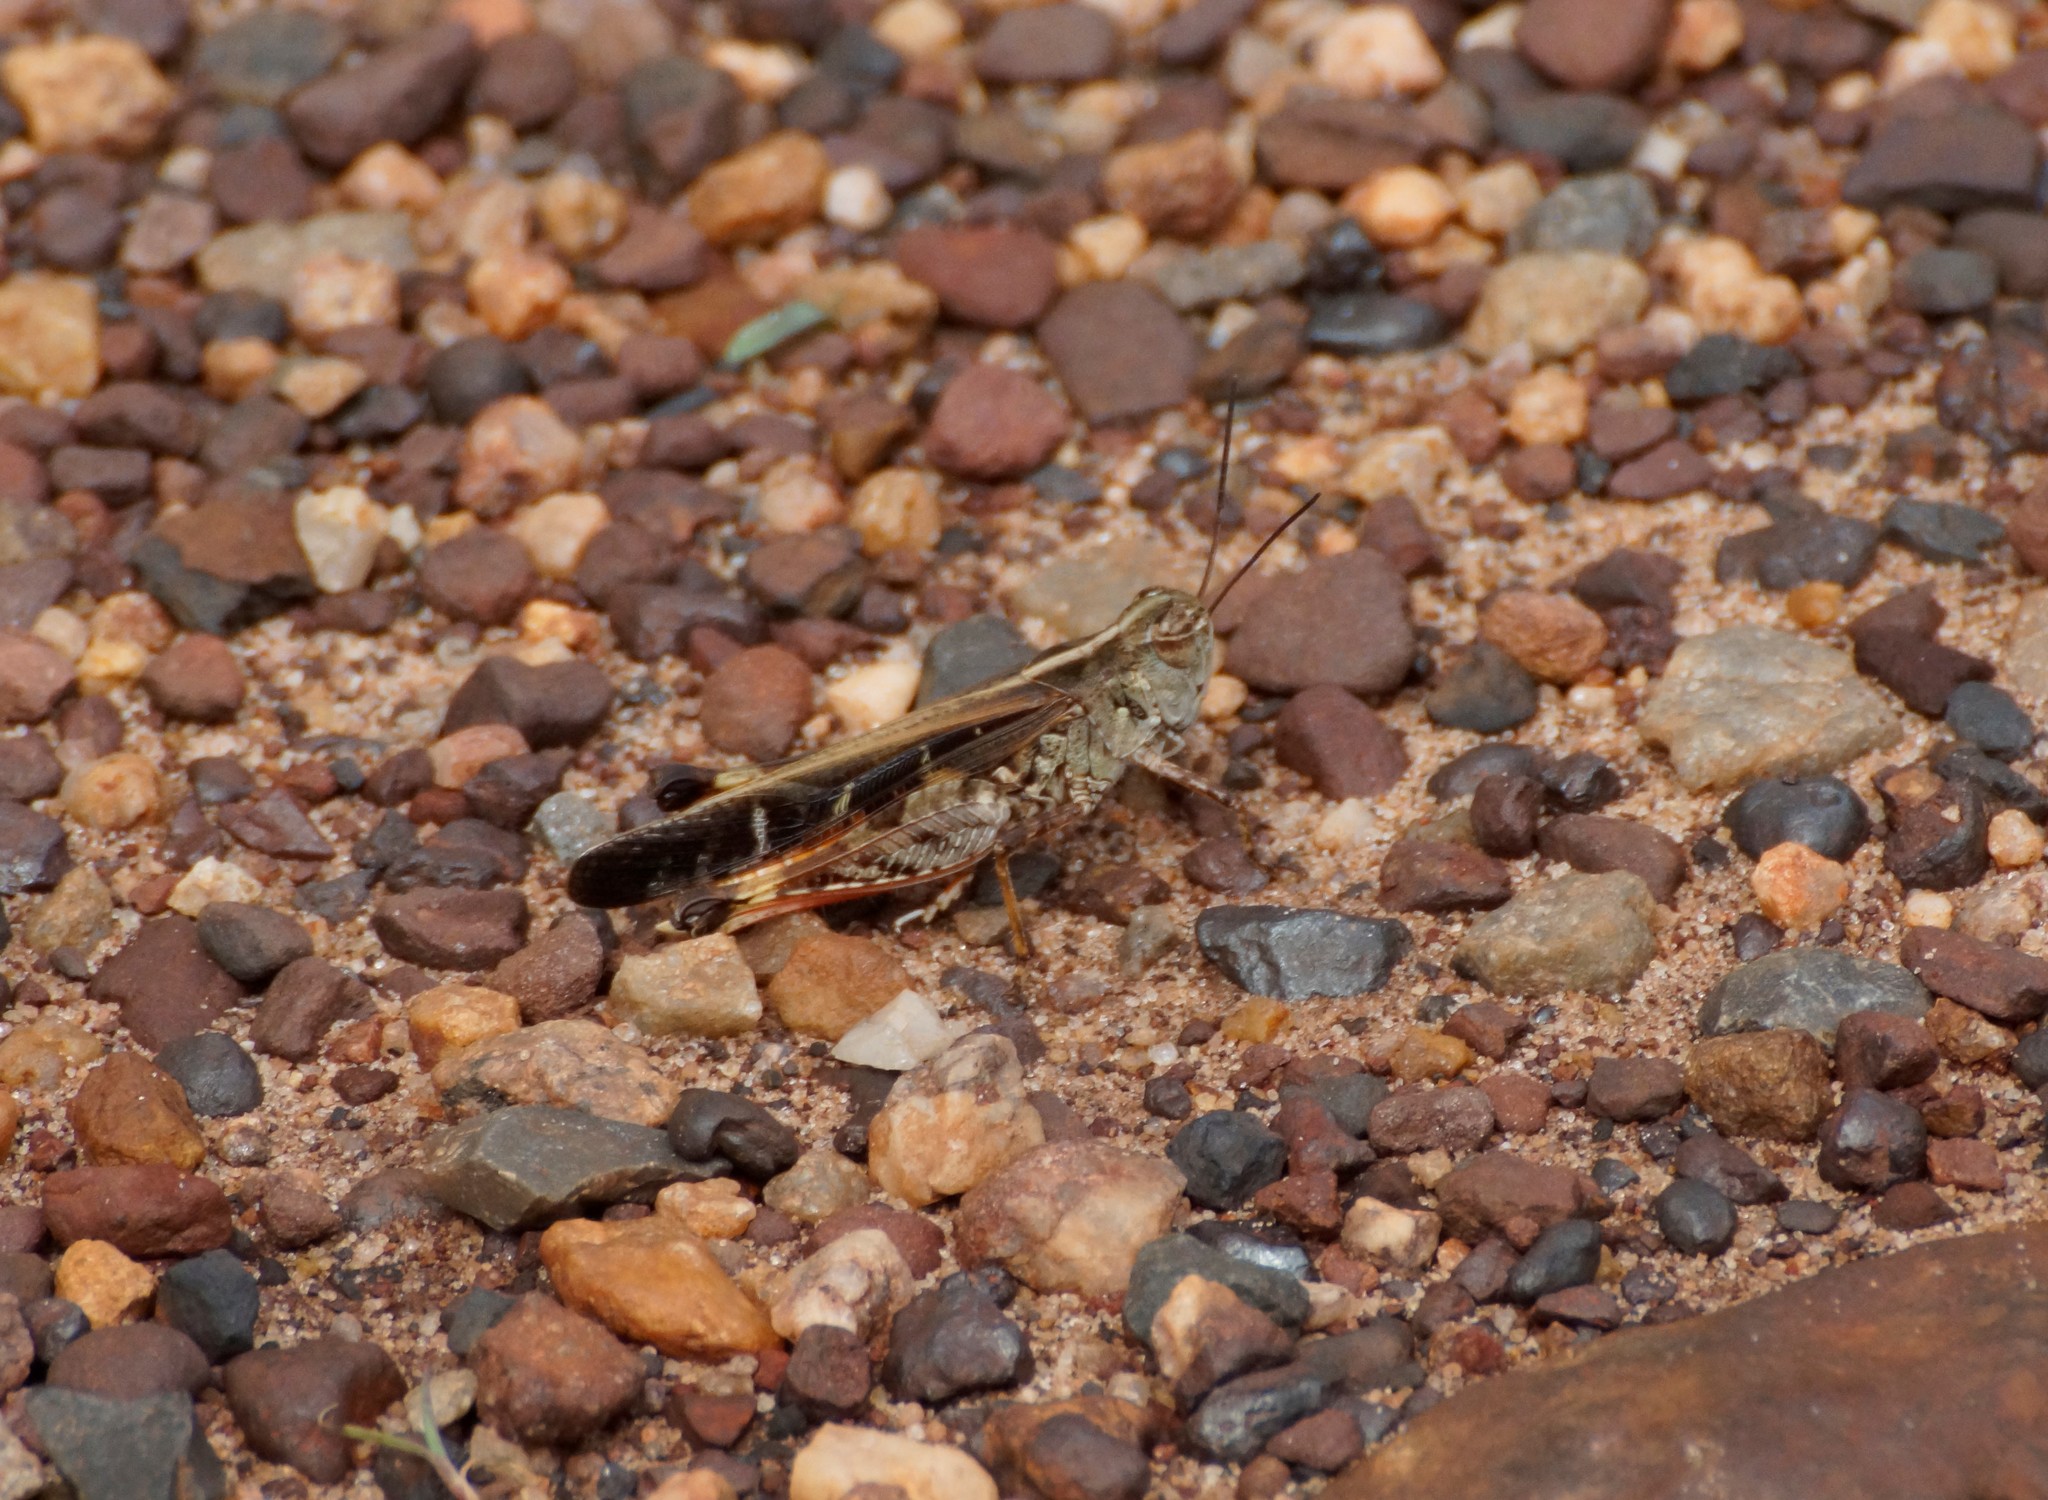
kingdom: Animalia
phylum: Arthropoda
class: Insecta
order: Orthoptera
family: Acrididae
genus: Heteropternis
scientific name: Heteropternis obscurella
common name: Long-legged bandwing
